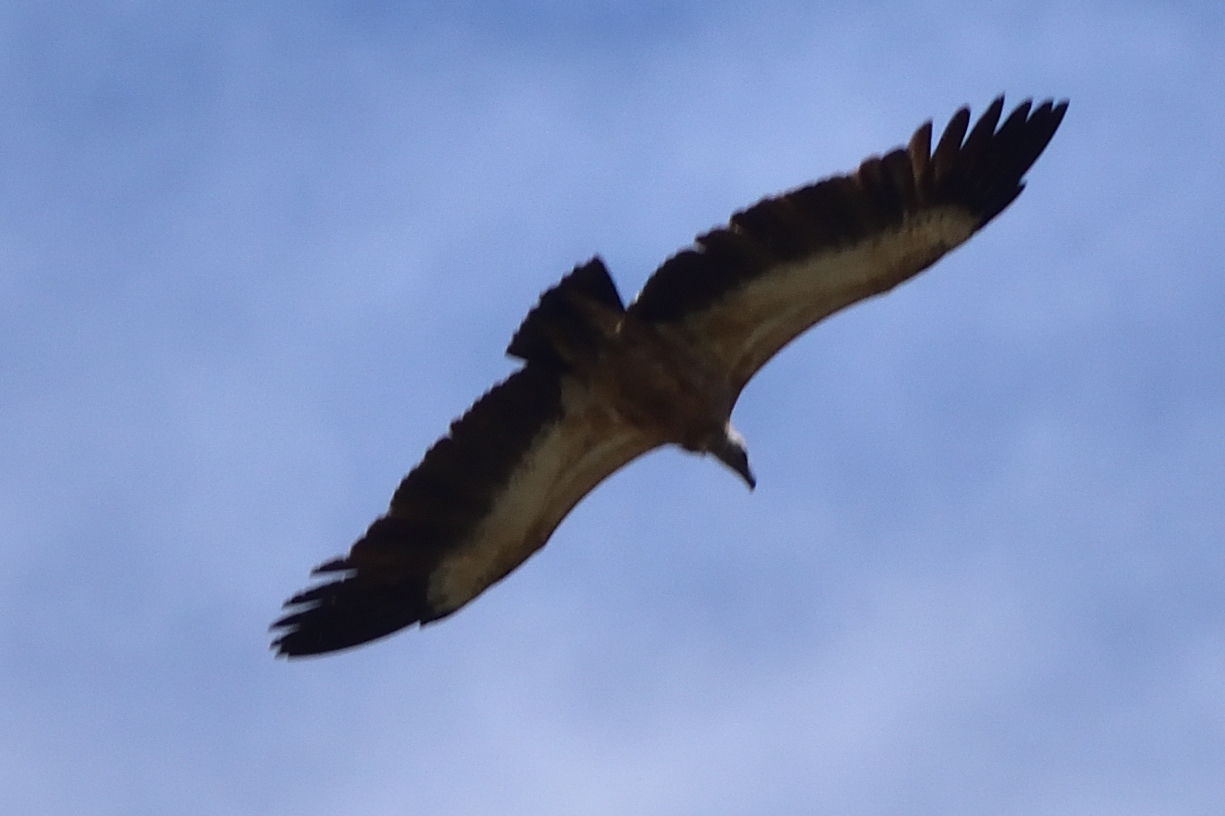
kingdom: Animalia
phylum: Chordata
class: Aves
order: Accipitriformes
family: Accipitridae
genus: Gyps
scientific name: Gyps fulvus
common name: Griffon vulture
